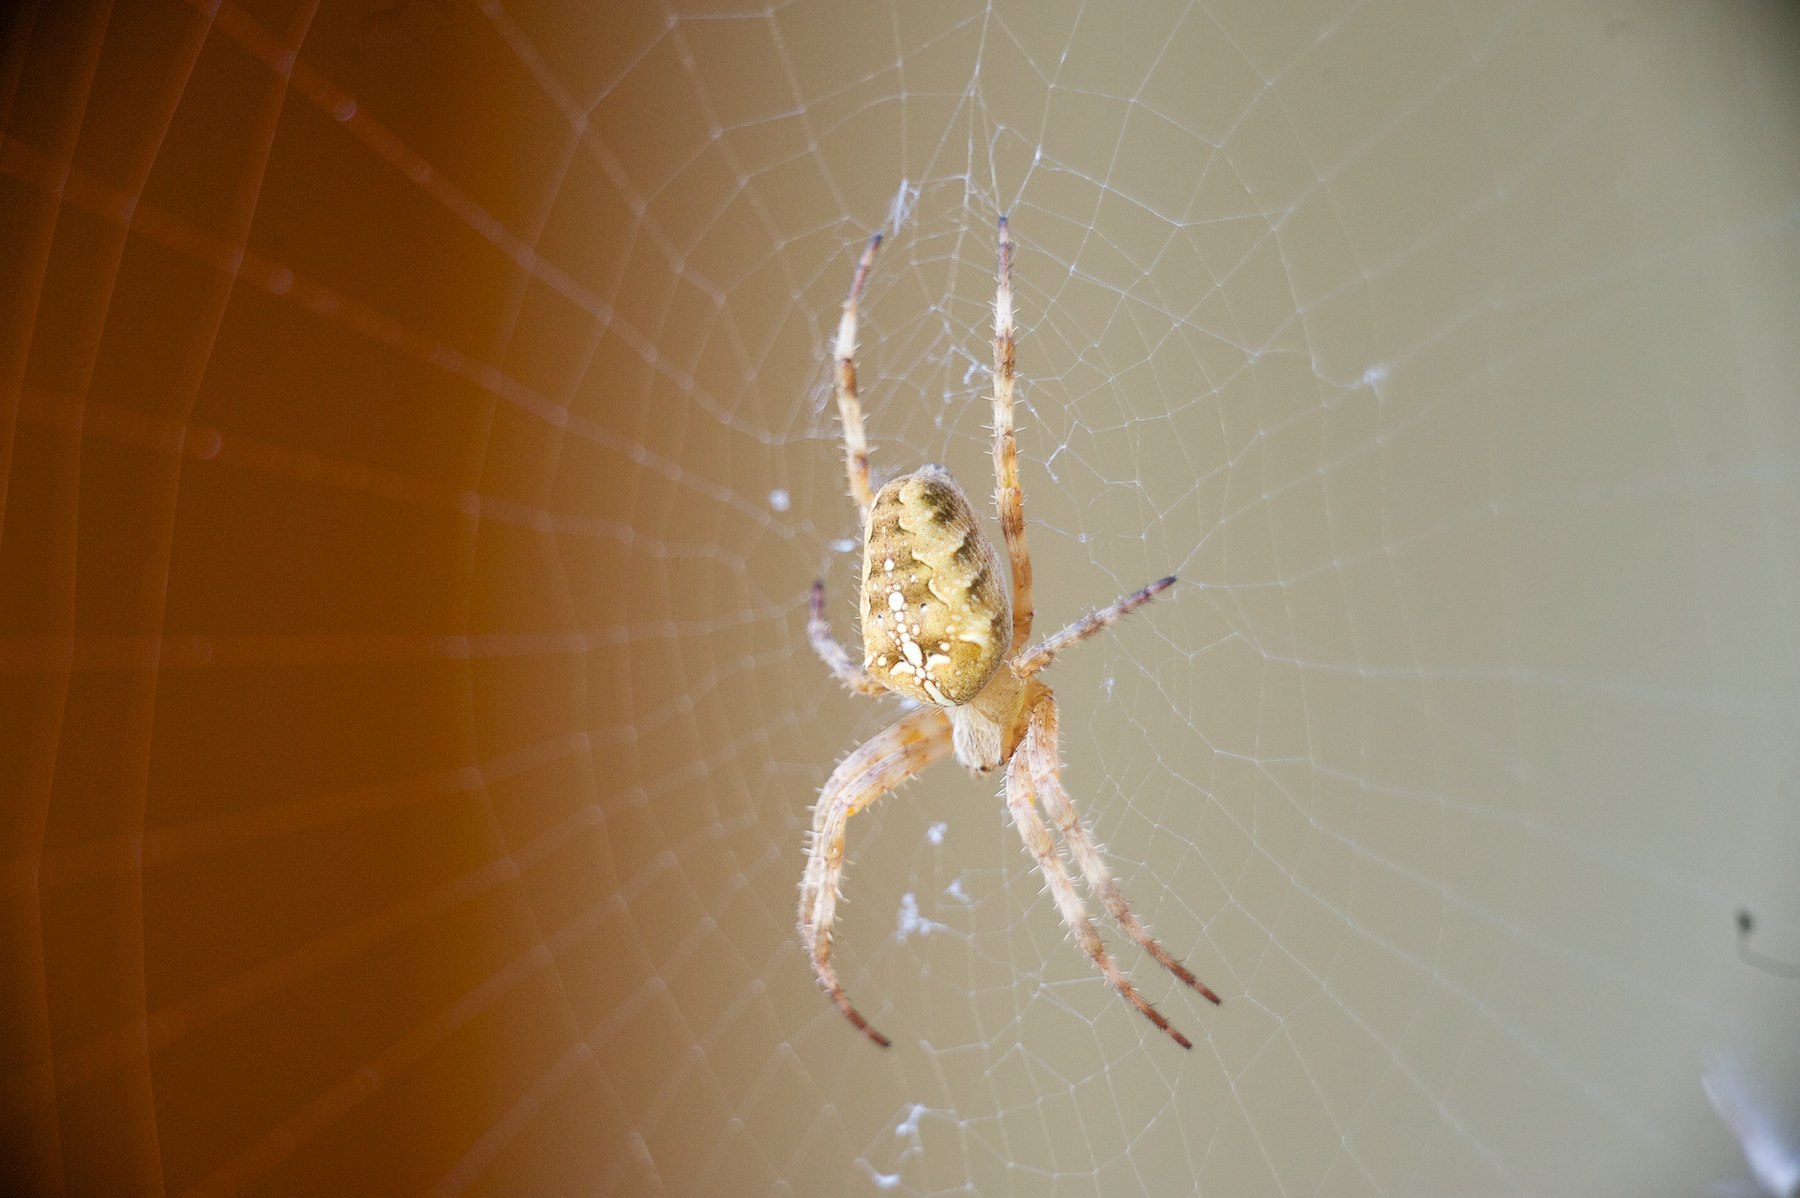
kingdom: Animalia
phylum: Arthropoda
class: Arachnida
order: Araneae
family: Araneidae
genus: Araneus
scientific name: Araneus diadematus
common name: Cross orbweaver
